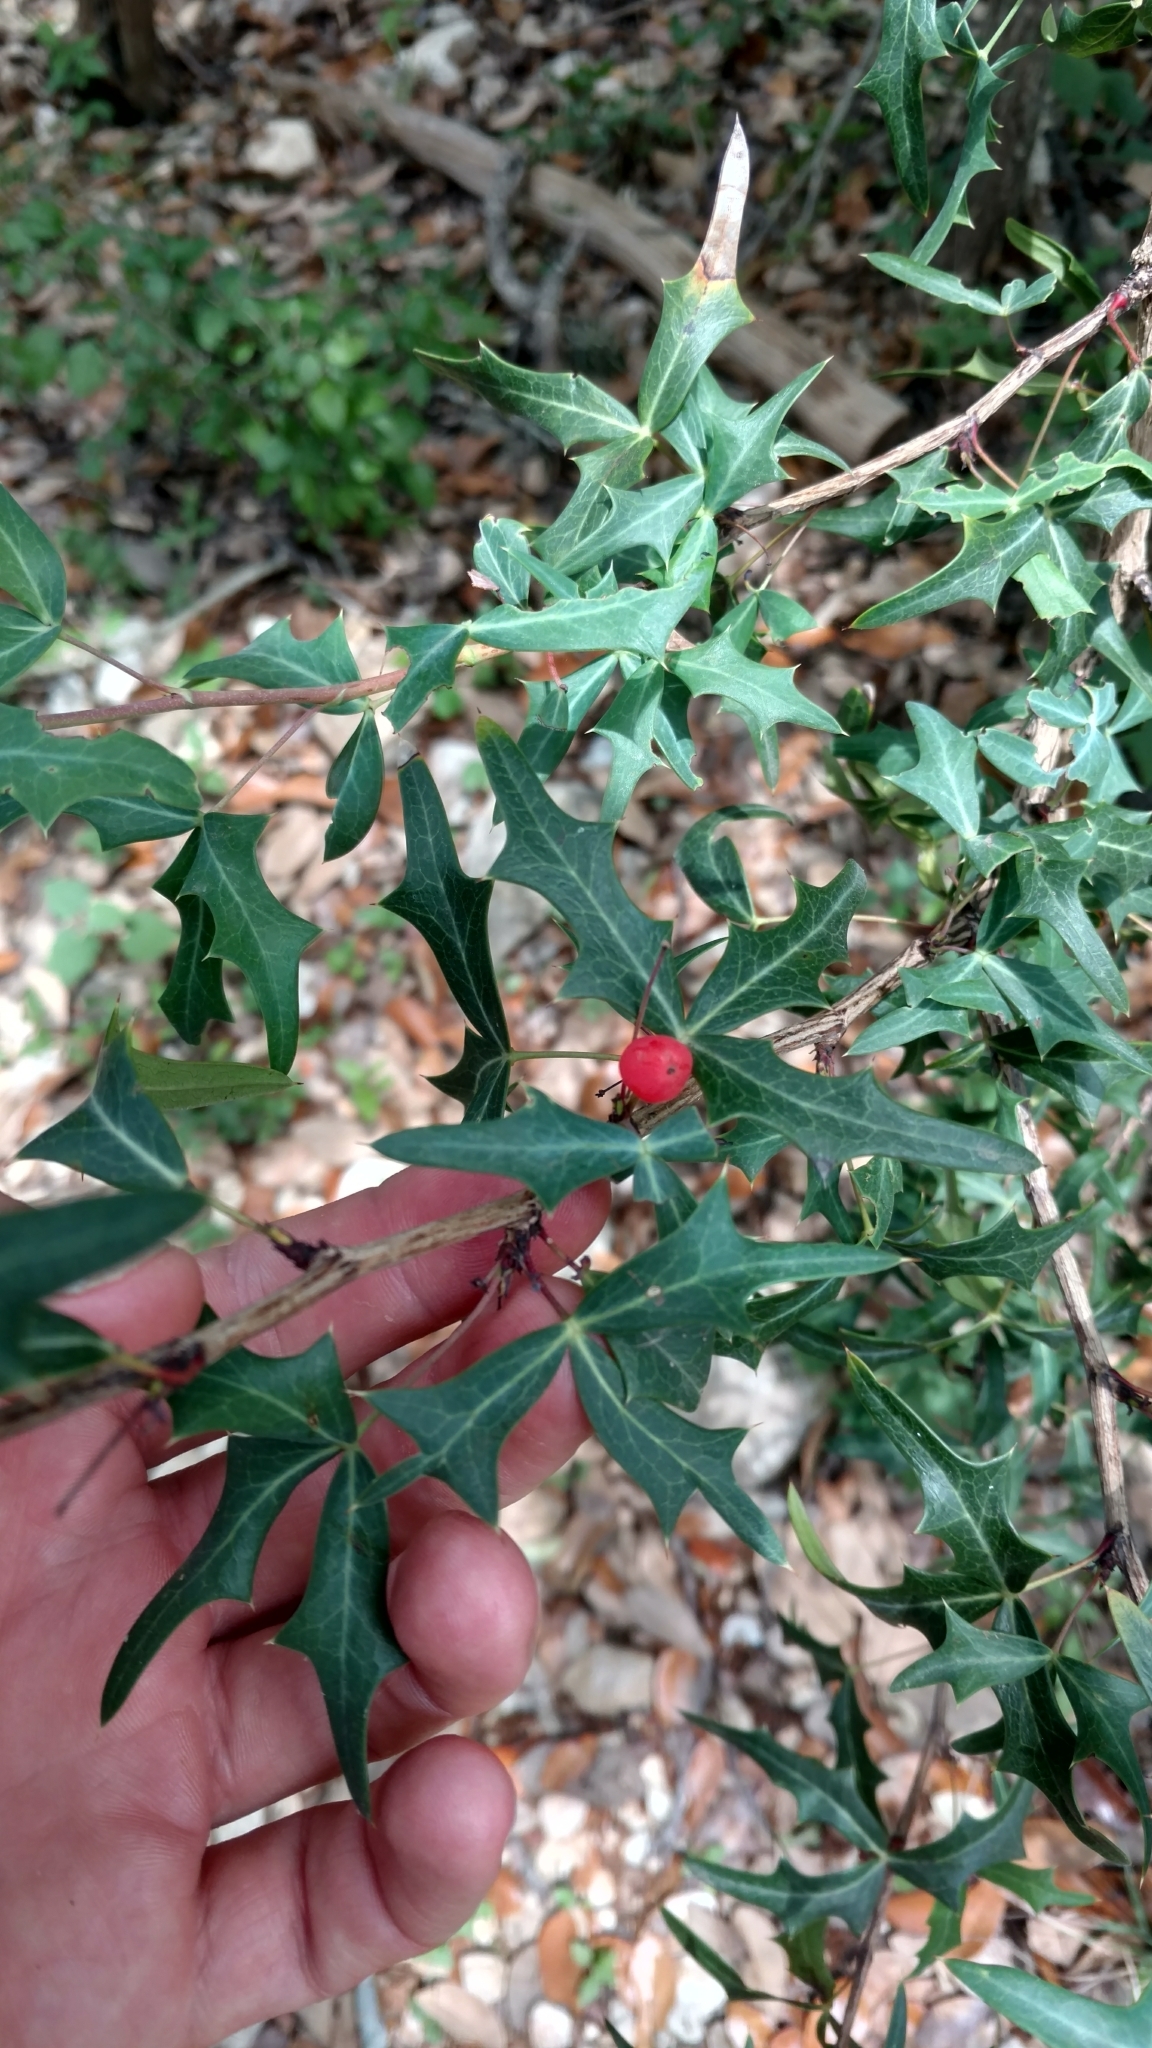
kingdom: Plantae
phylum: Tracheophyta
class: Magnoliopsida
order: Ranunculales
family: Berberidaceae
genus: Alloberberis
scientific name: Alloberberis trifoliolata
